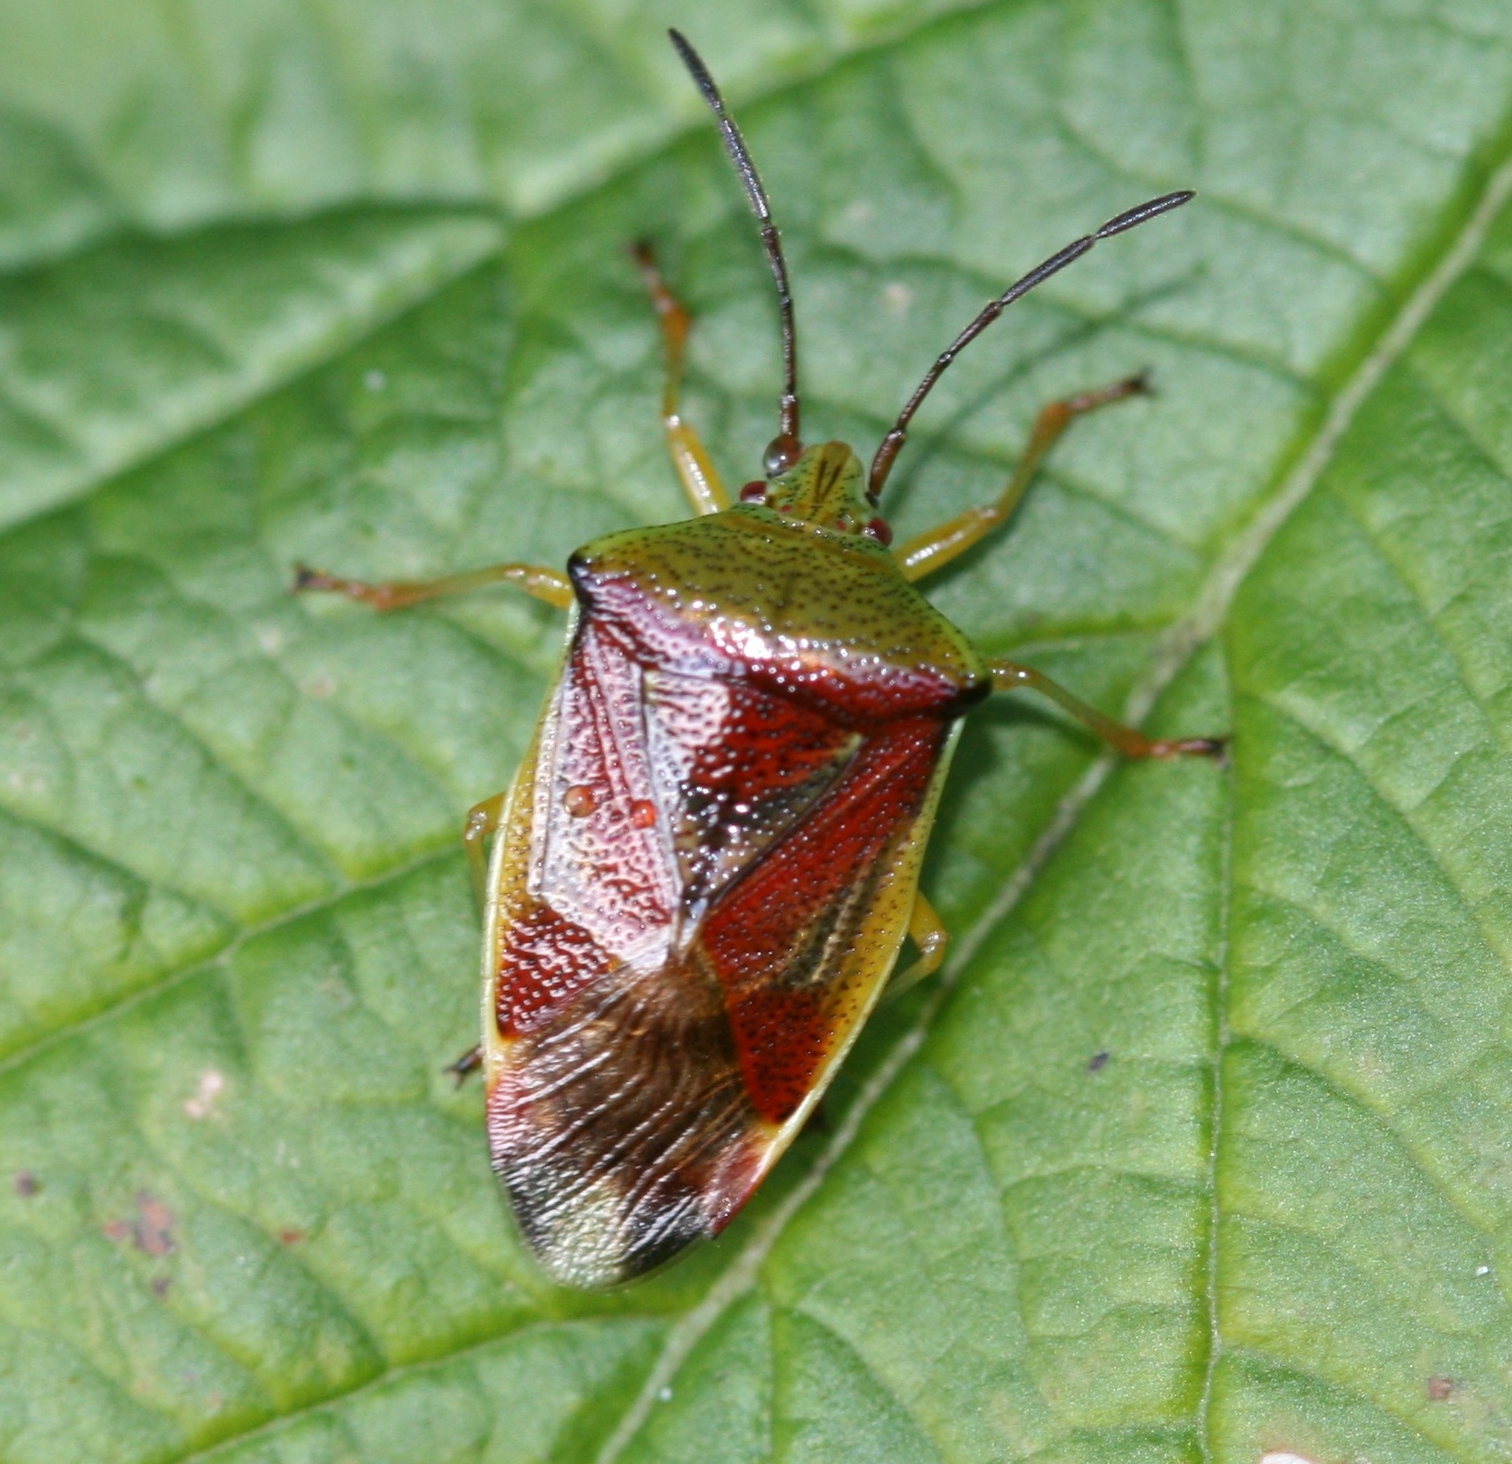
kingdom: Animalia
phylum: Arthropoda
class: Insecta
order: Hemiptera
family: Acanthosomatidae
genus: Elasmostethus
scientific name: Elasmostethus interstinctus
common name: Birch shieldbug
